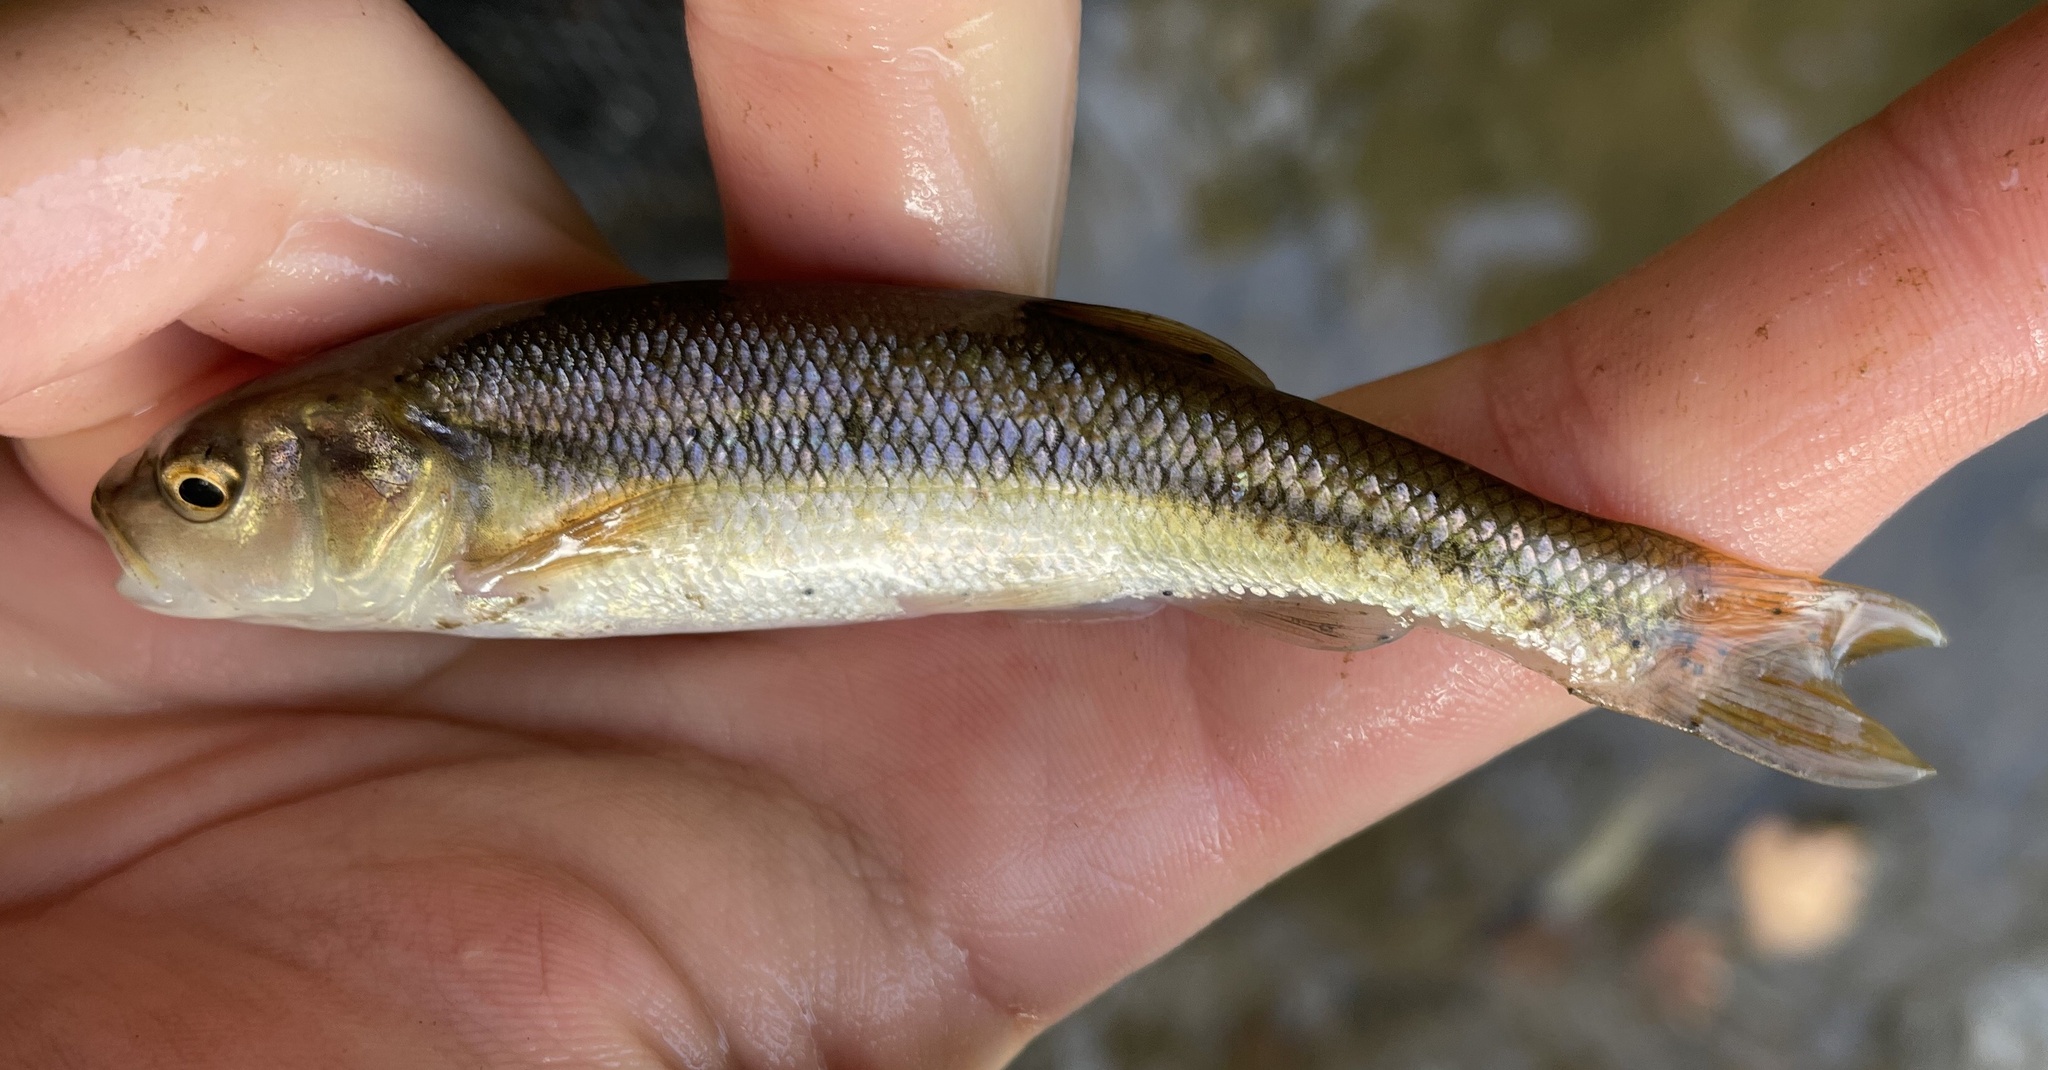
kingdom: Animalia
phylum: Chordata
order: Cypriniformes
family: Cyprinidae
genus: Semotilus
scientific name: Semotilus atromaculatus
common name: Creek chub
